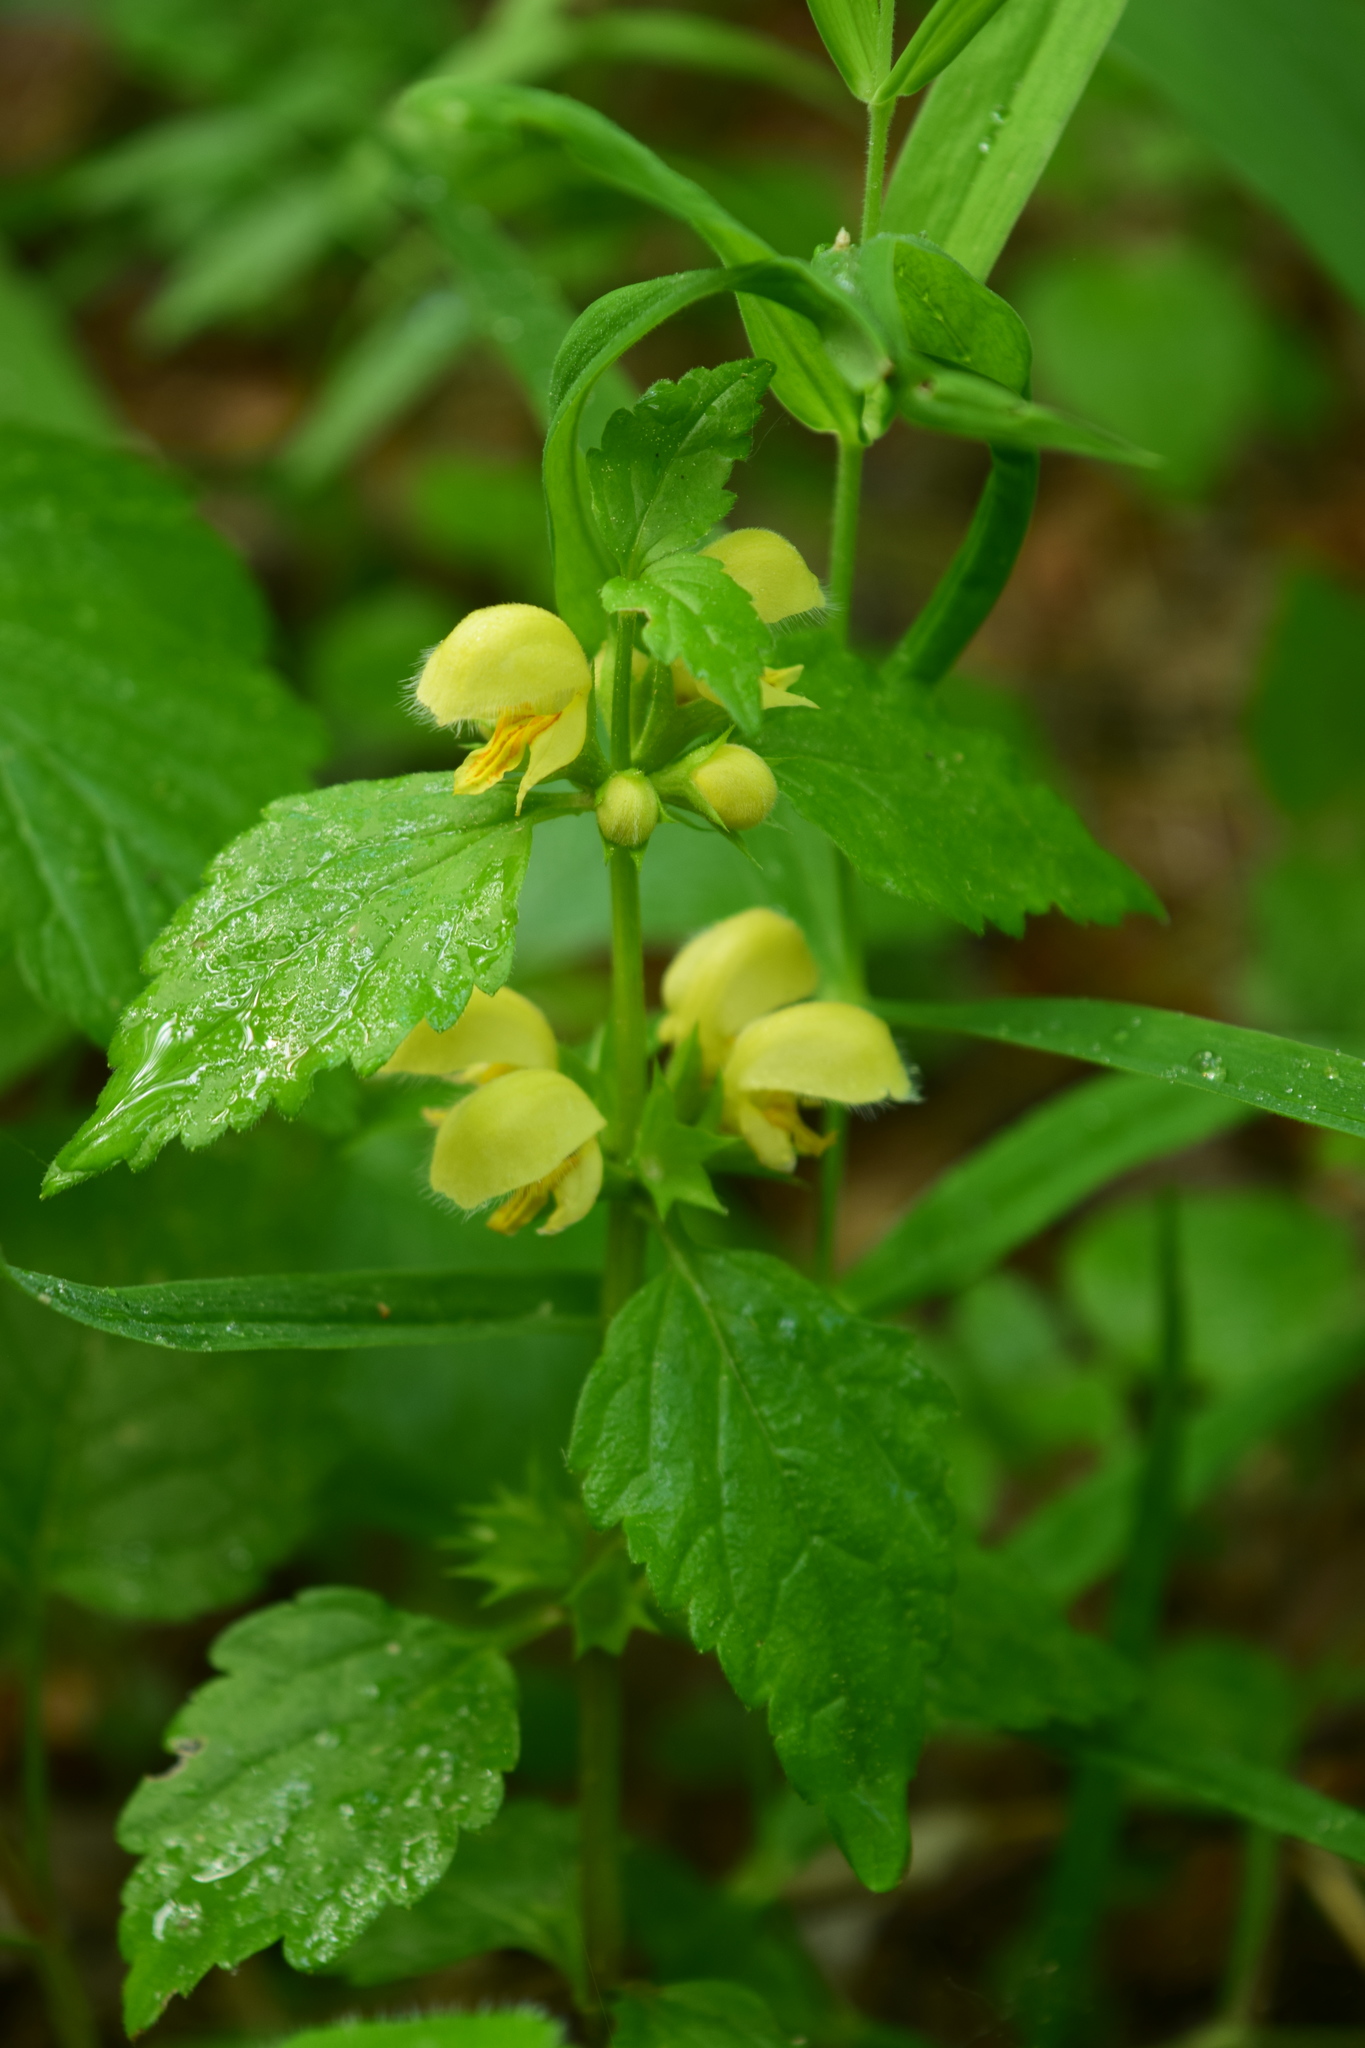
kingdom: Plantae
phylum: Tracheophyta
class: Magnoliopsida
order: Lamiales
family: Lamiaceae
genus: Lamium
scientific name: Lamium galeobdolon
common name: Yellow archangel
